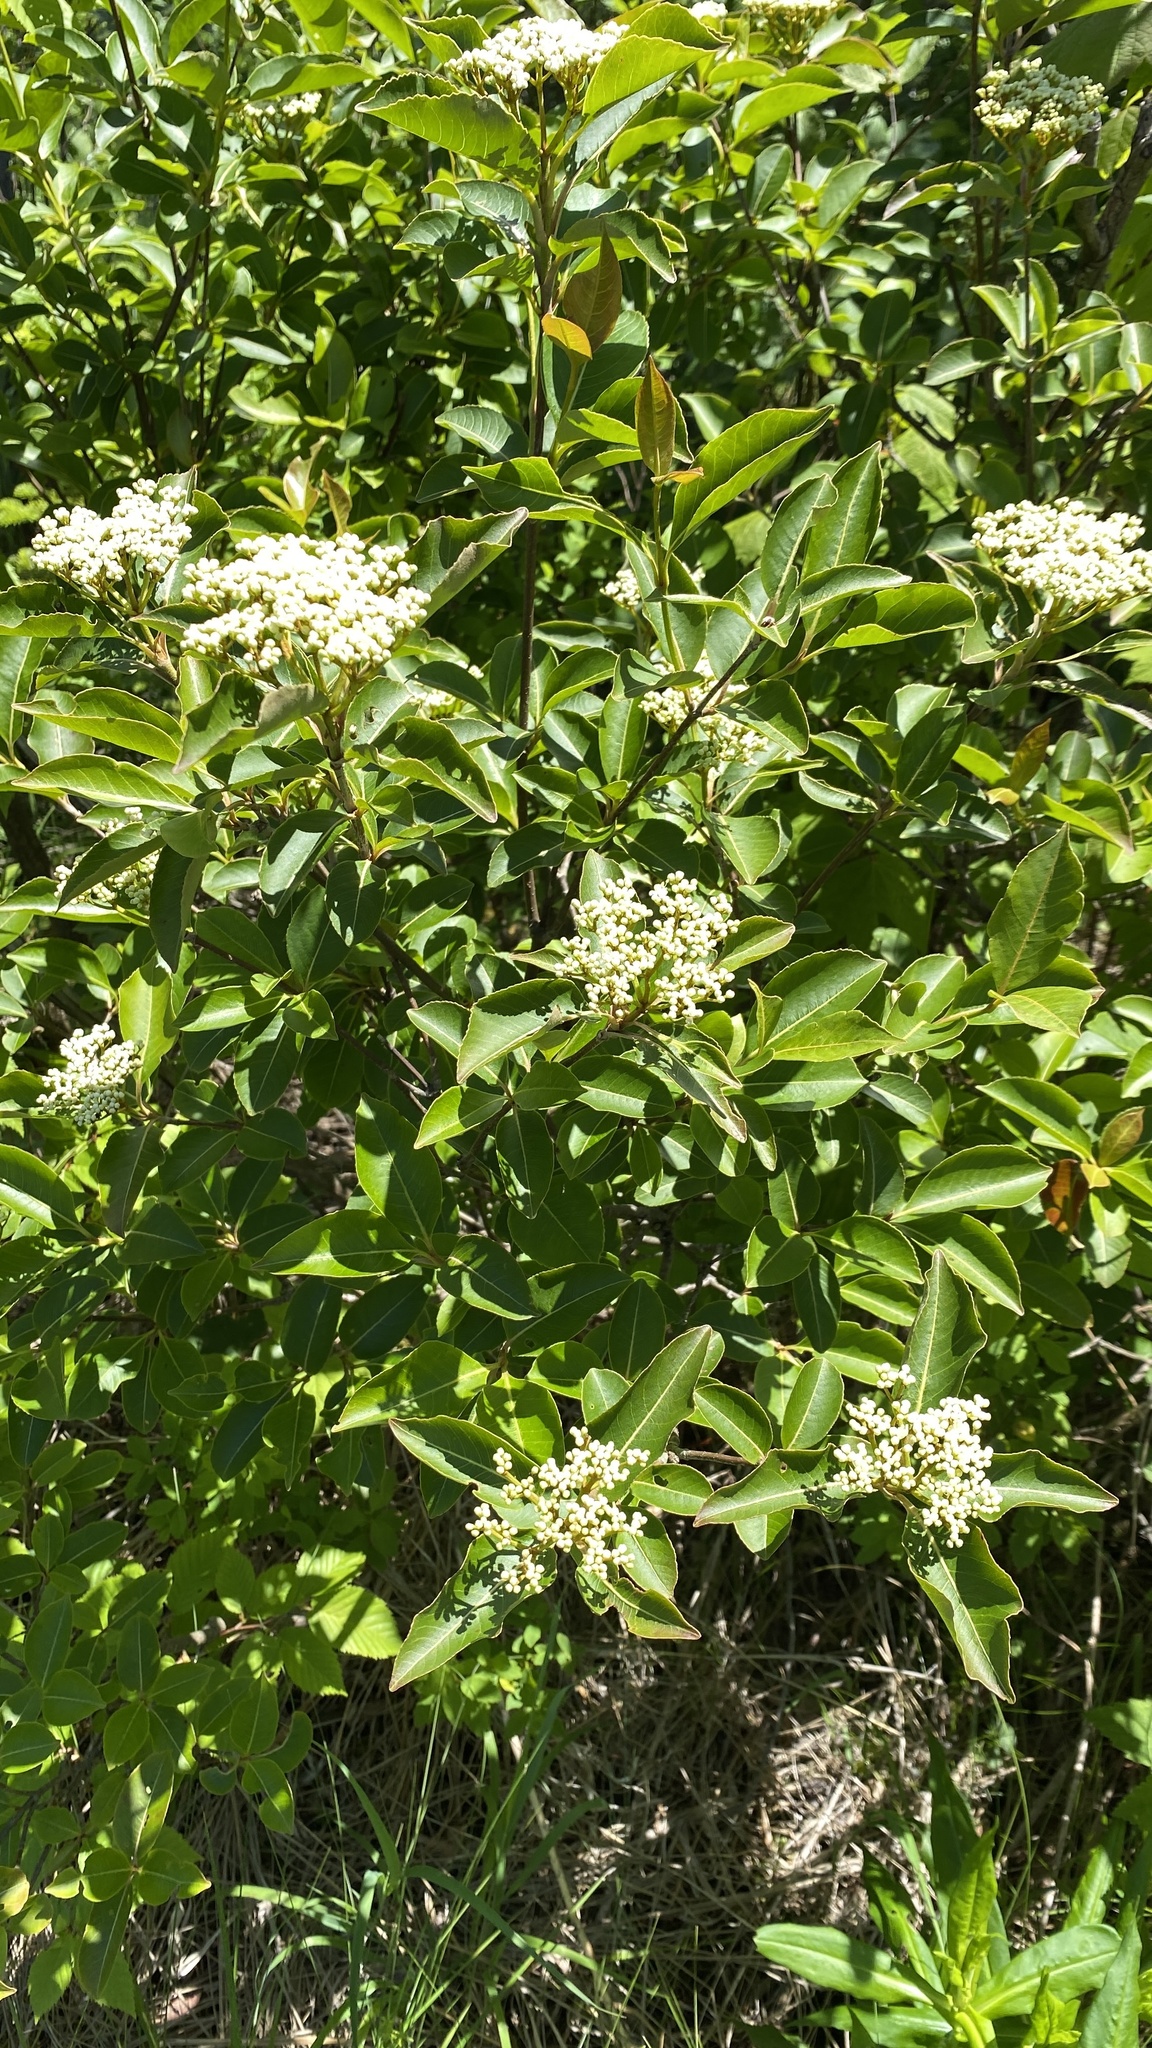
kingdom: Plantae
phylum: Tracheophyta
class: Magnoliopsida
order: Dipsacales
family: Viburnaceae
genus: Viburnum
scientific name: Viburnum cassinoides
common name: Swamp haw
